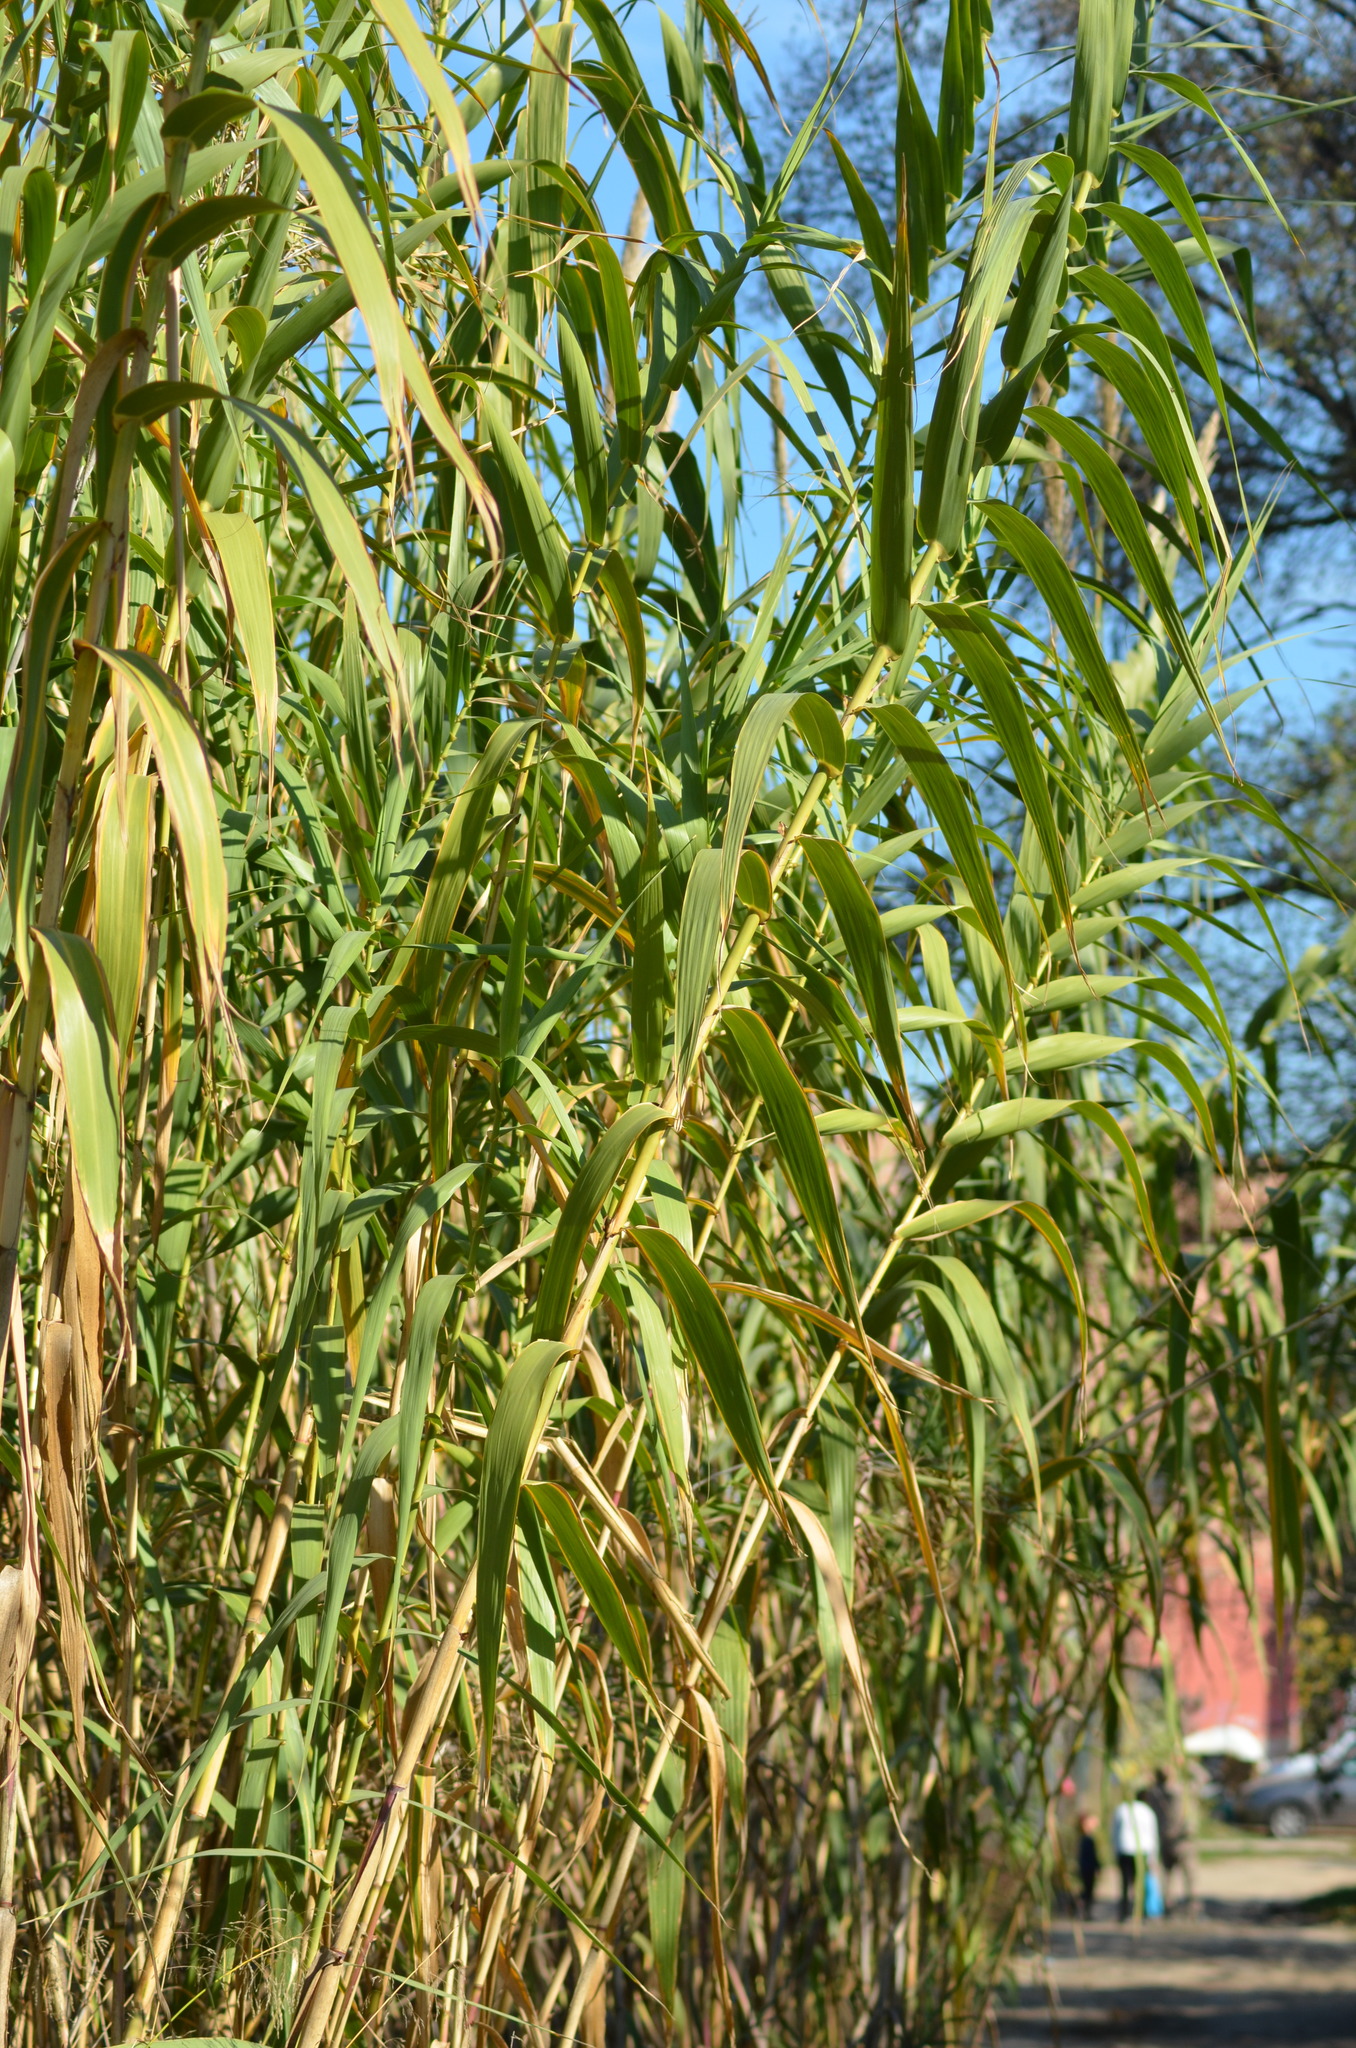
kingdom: Plantae
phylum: Tracheophyta
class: Liliopsida
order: Poales
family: Poaceae
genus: Arundo
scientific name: Arundo donax
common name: Giant reed
